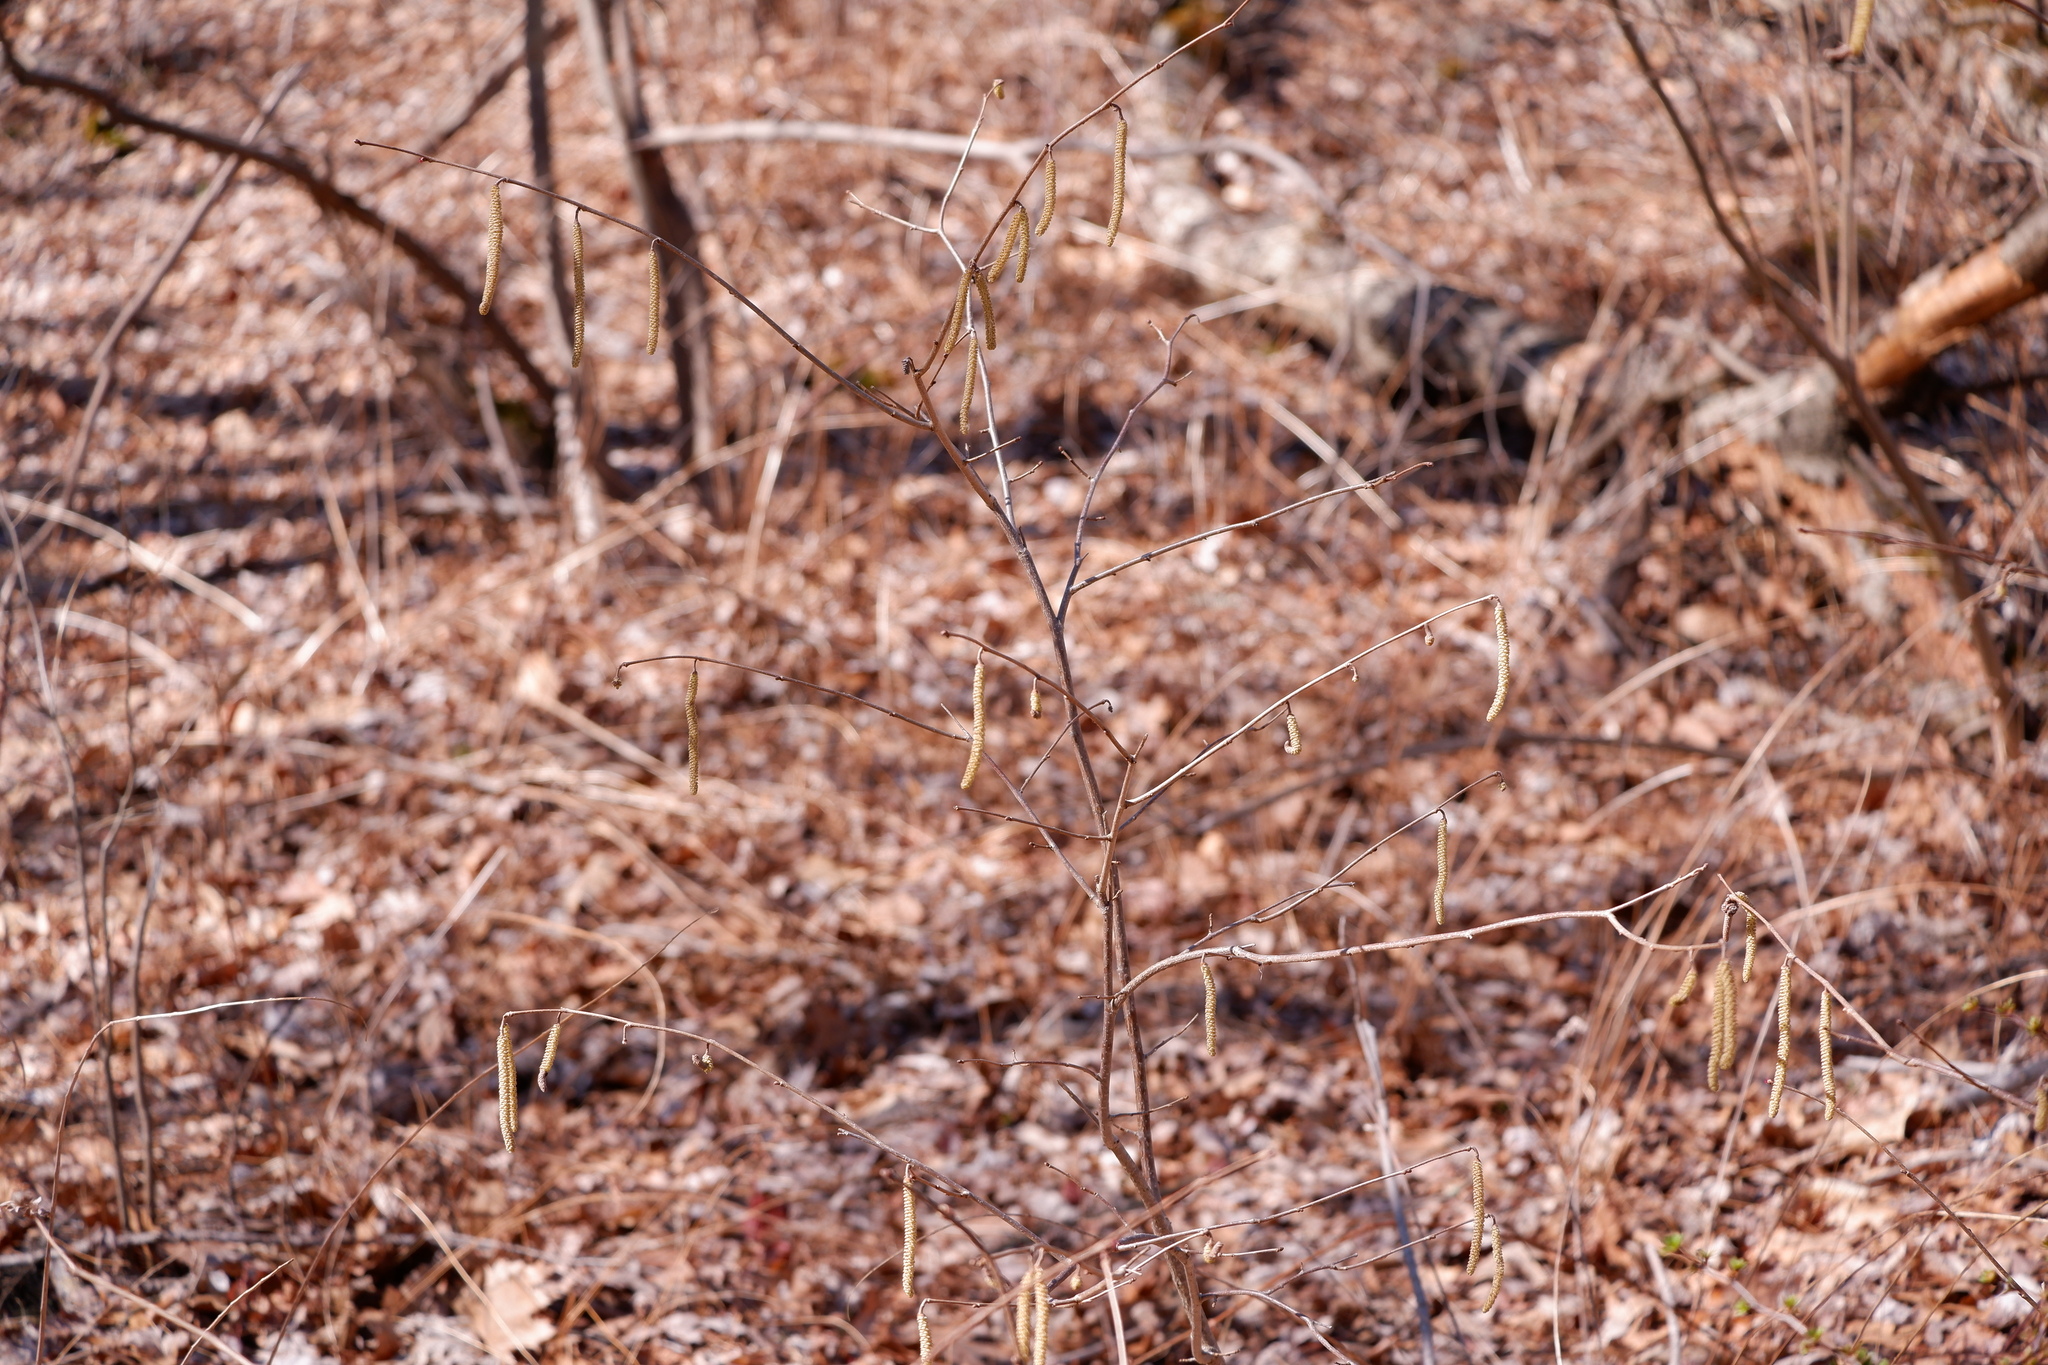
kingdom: Plantae
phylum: Tracheophyta
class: Magnoliopsida
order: Fagales
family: Betulaceae
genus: Corylus
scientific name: Corylus americana
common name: American hazel
